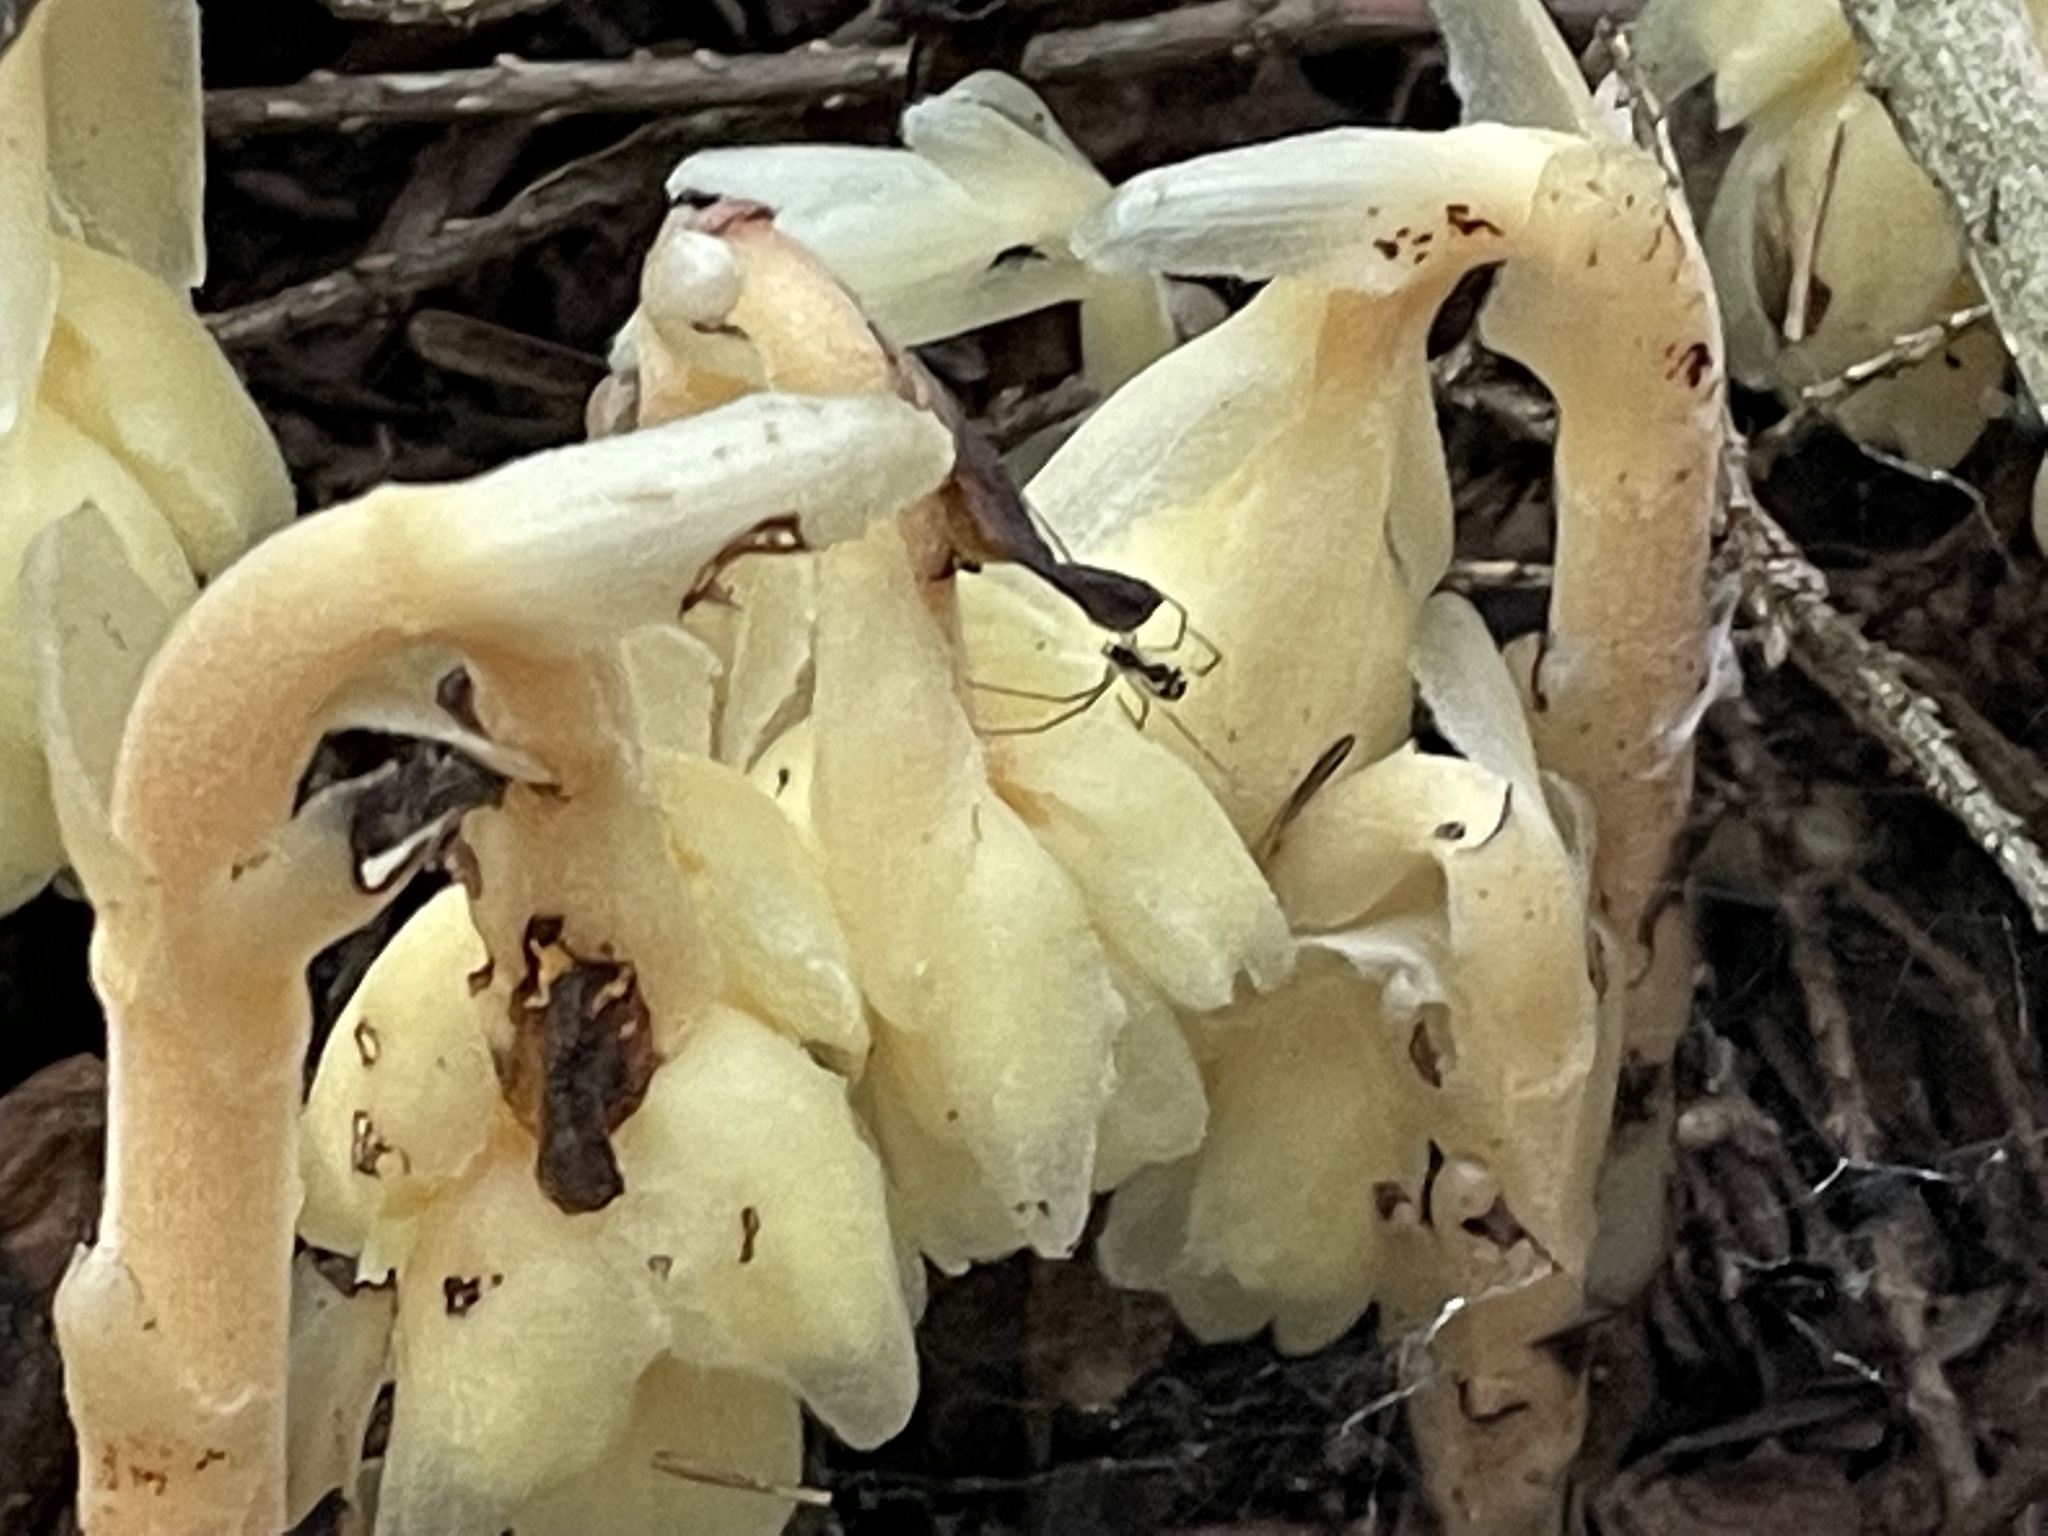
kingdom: Plantae
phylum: Tracheophyta
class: Magnoliopsida
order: Ericales
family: Ericaceae
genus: Hypopitys
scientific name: Hypopitys monotropa
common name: Yellow bird's-nest
